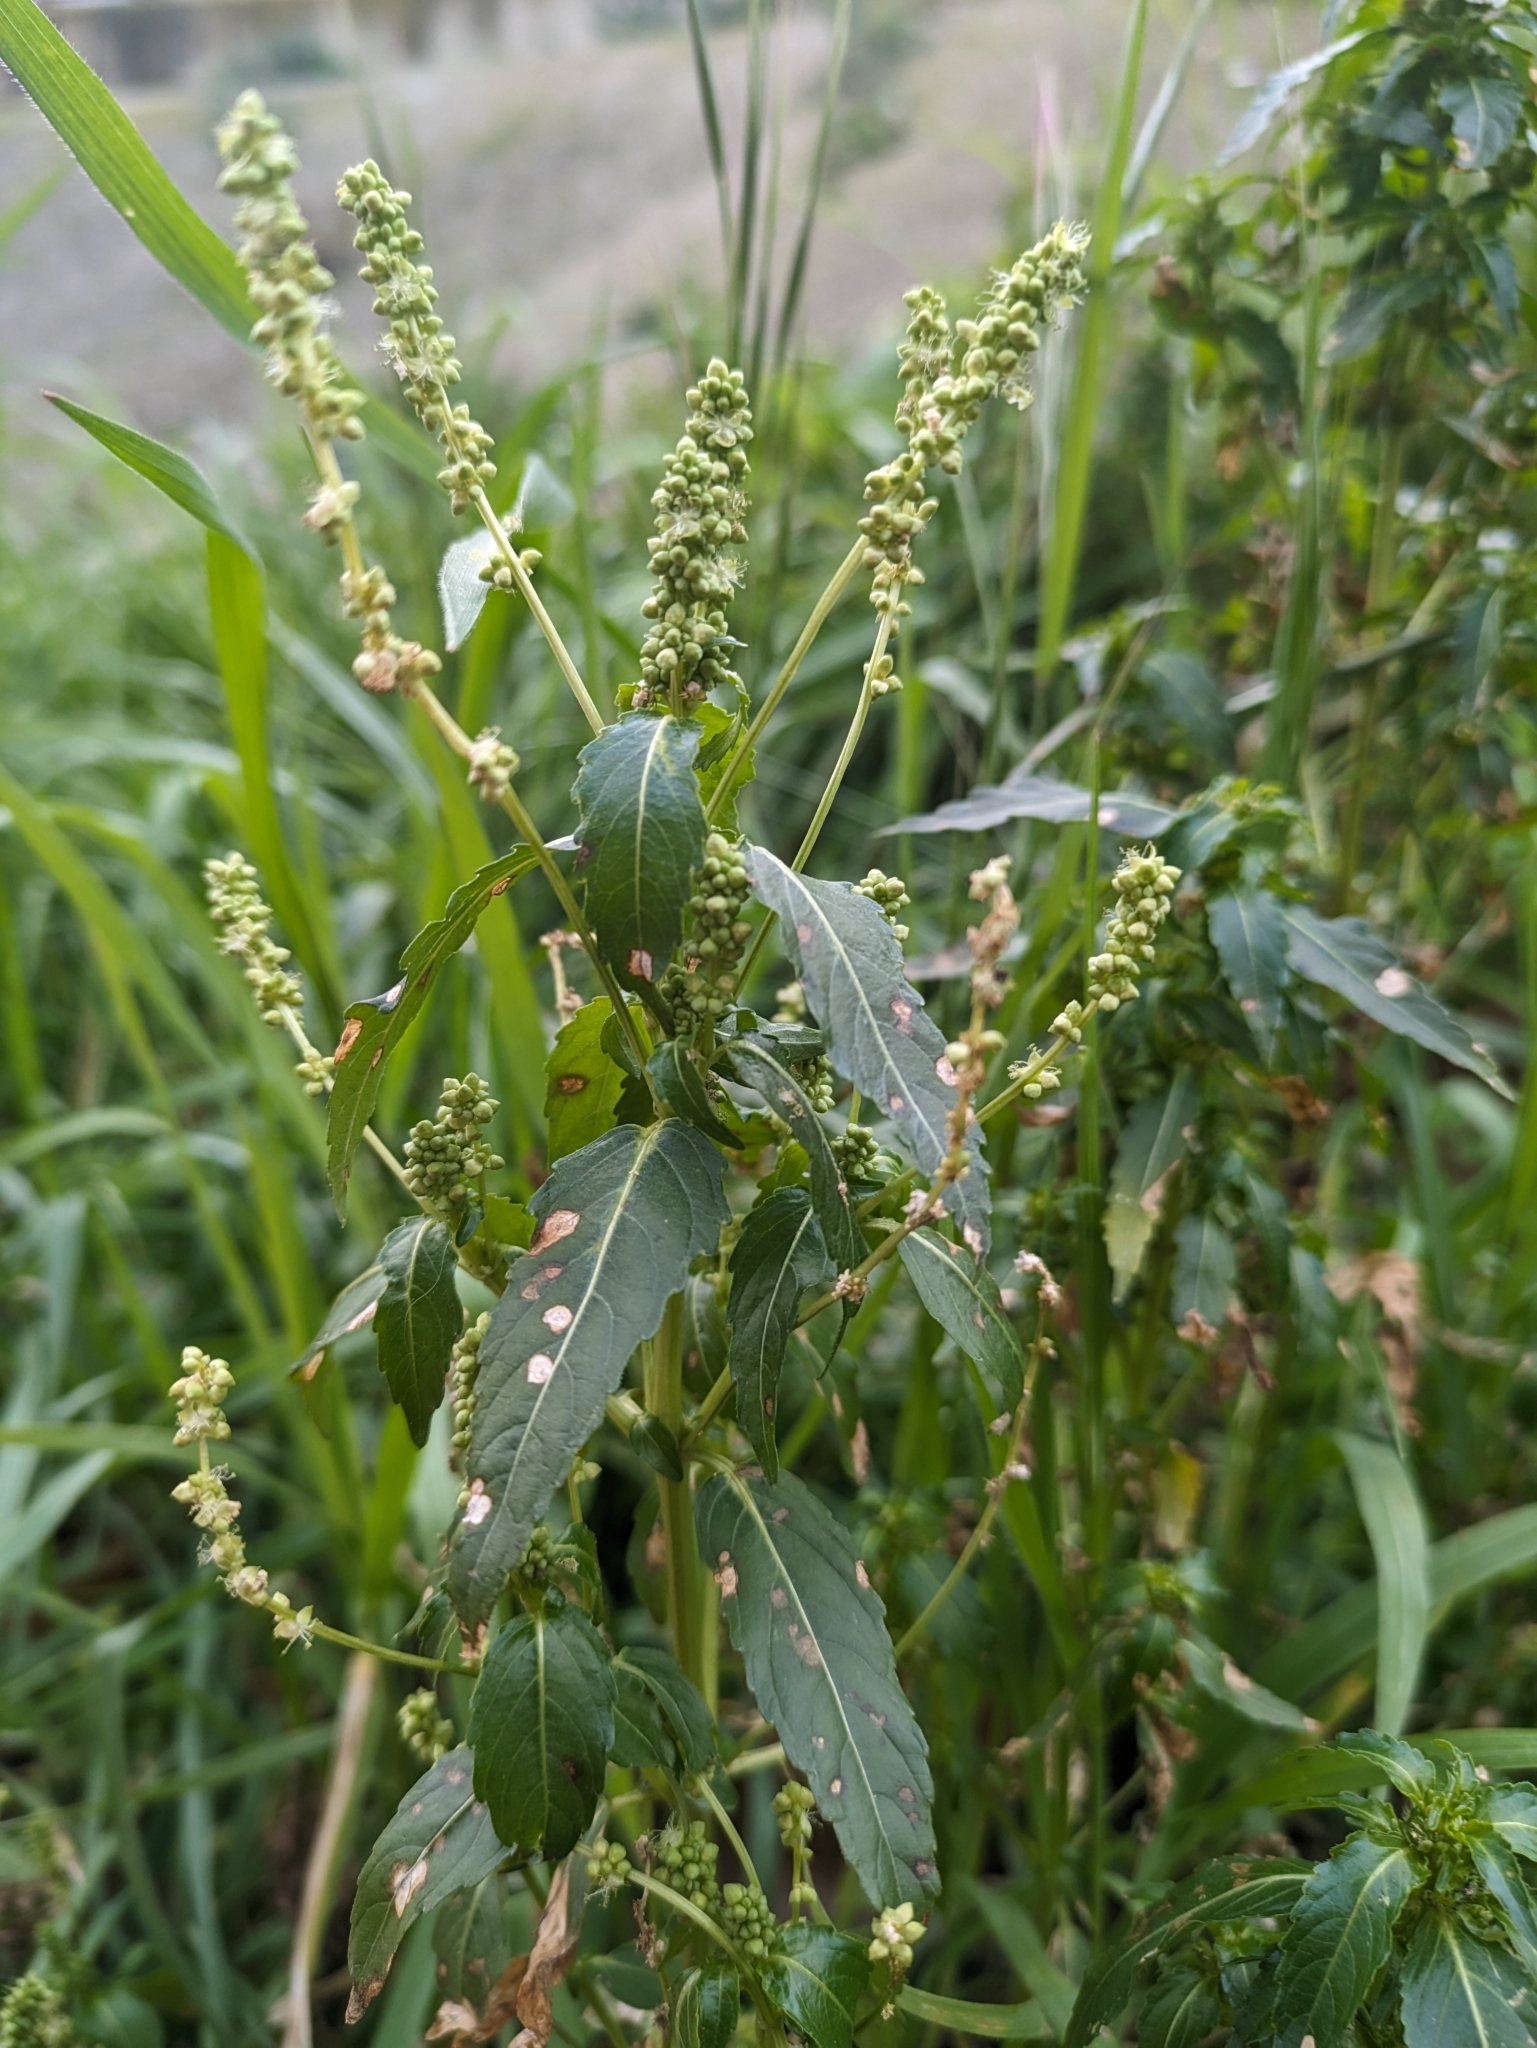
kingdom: Plantae
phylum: Tracheophyta
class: Magnoliopsida
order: Malpighiales
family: Euphorbiaceae
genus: Mercurialis
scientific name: Mercurialis annua
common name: Annual mercury
